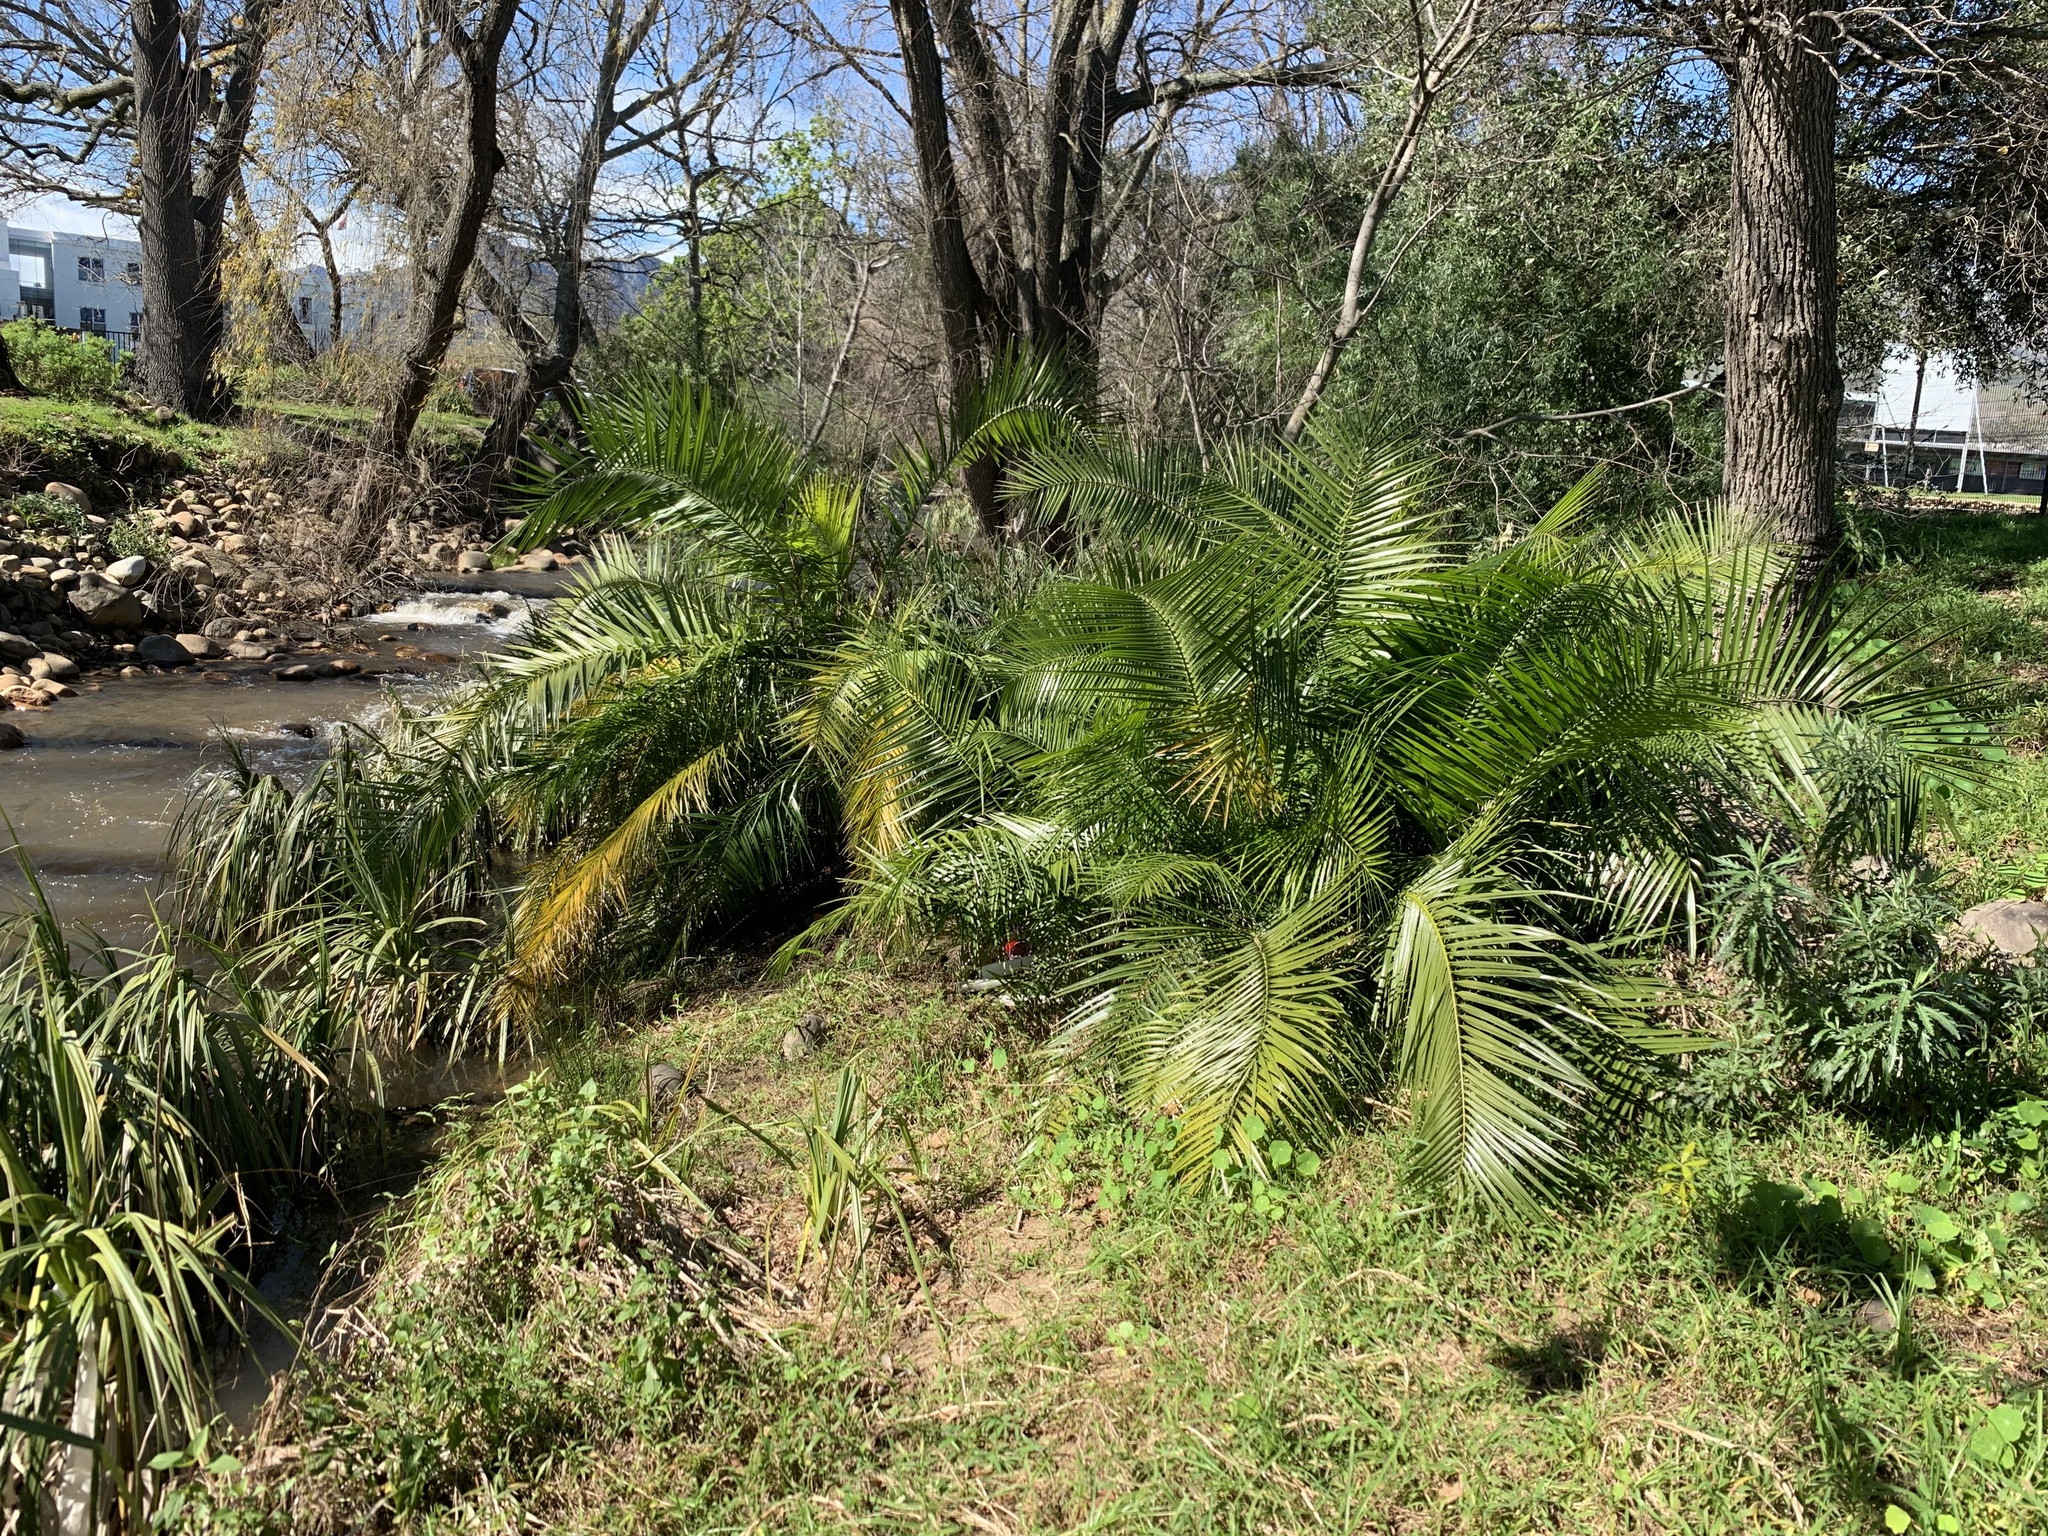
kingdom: Plantae
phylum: Tracheophyta
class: Liliopsida
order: Arecales
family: Arecaceae
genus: Phoenix
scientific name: Phoenix canariensis
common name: Canary island date palm
